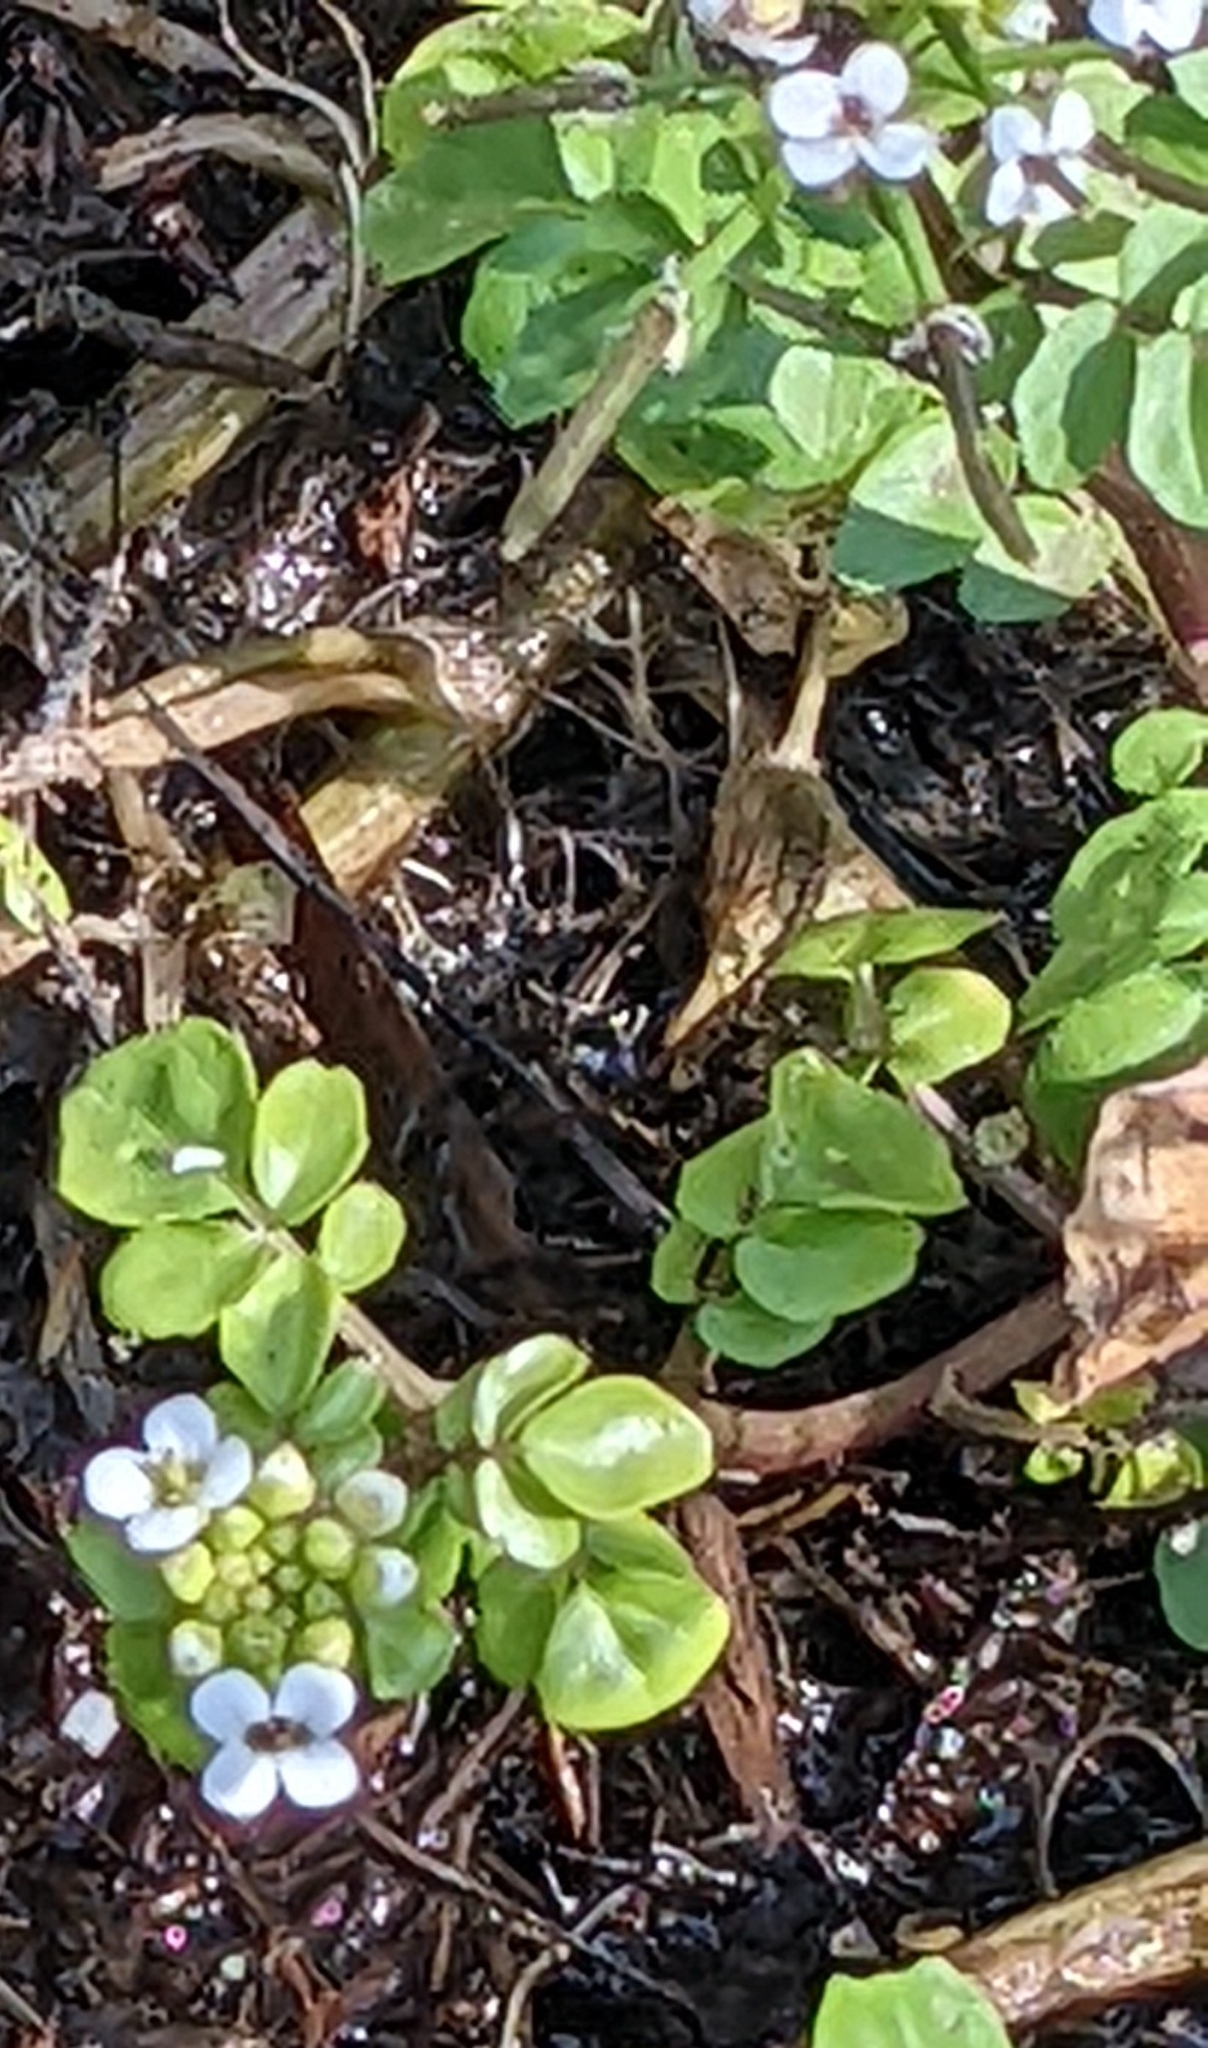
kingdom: Plantae
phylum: Tracheophyta
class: Magnoliopsida
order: Brassicales
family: Brassicaceae
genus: Nasturtium
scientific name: Nasturtium officinale
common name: Watercress
